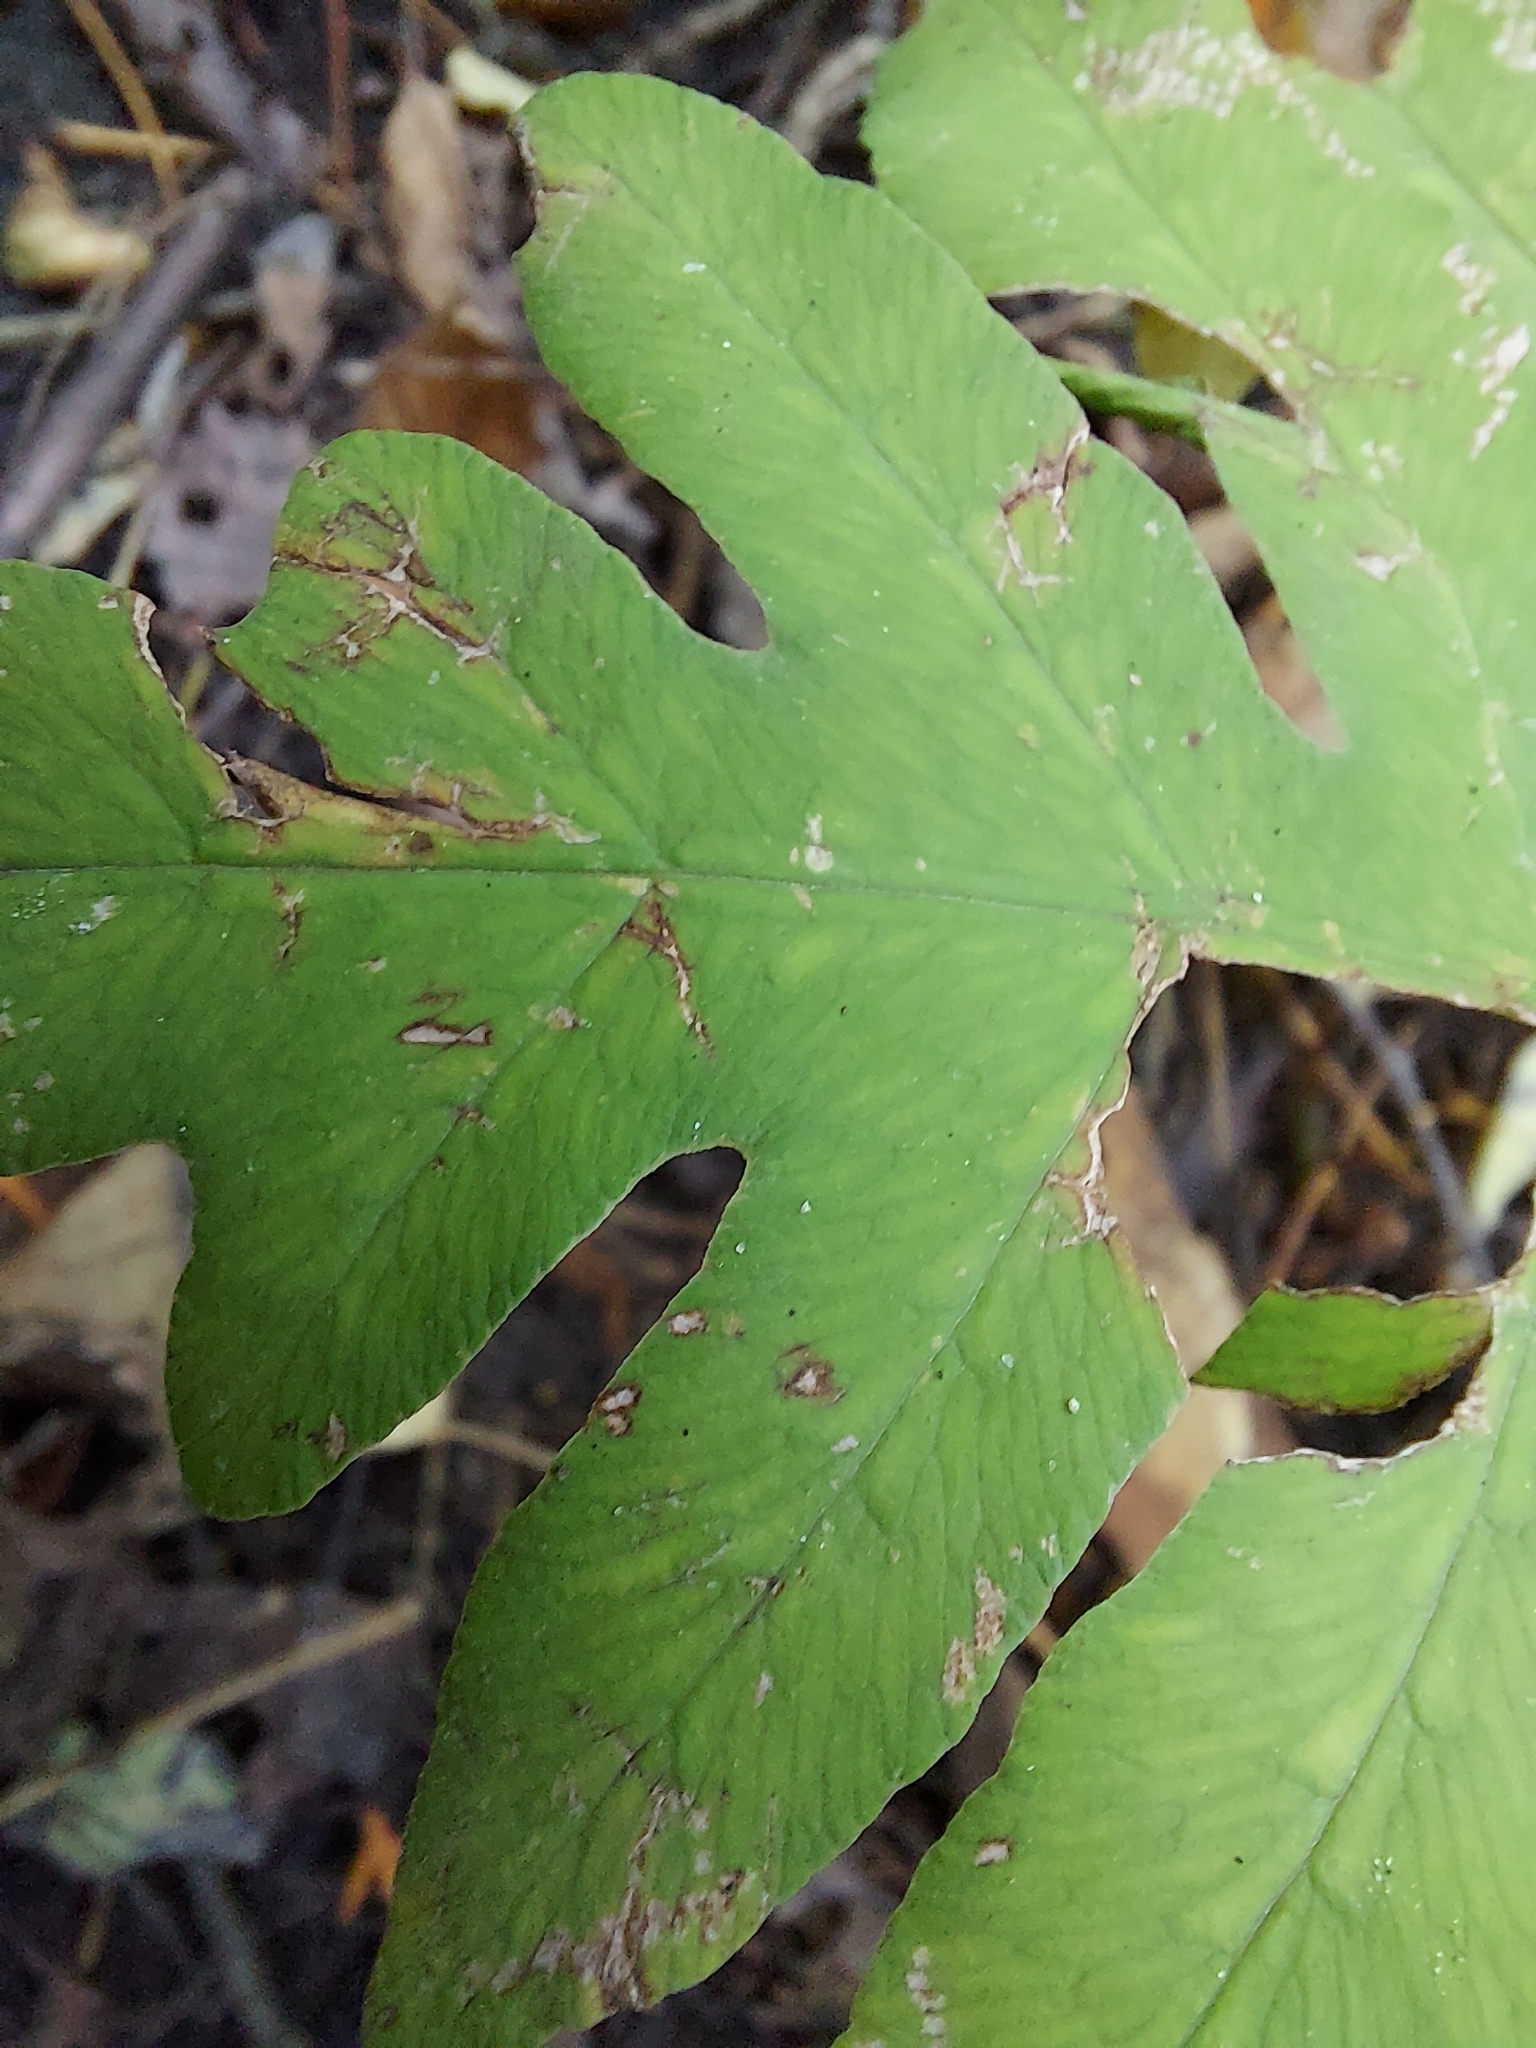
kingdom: Plantae
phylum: Tracheophyta
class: Polypodiopsida
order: Polypodiales
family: Onocleaceae
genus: Onoclea
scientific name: Onoclea sensibilis
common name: Sensitive fern
